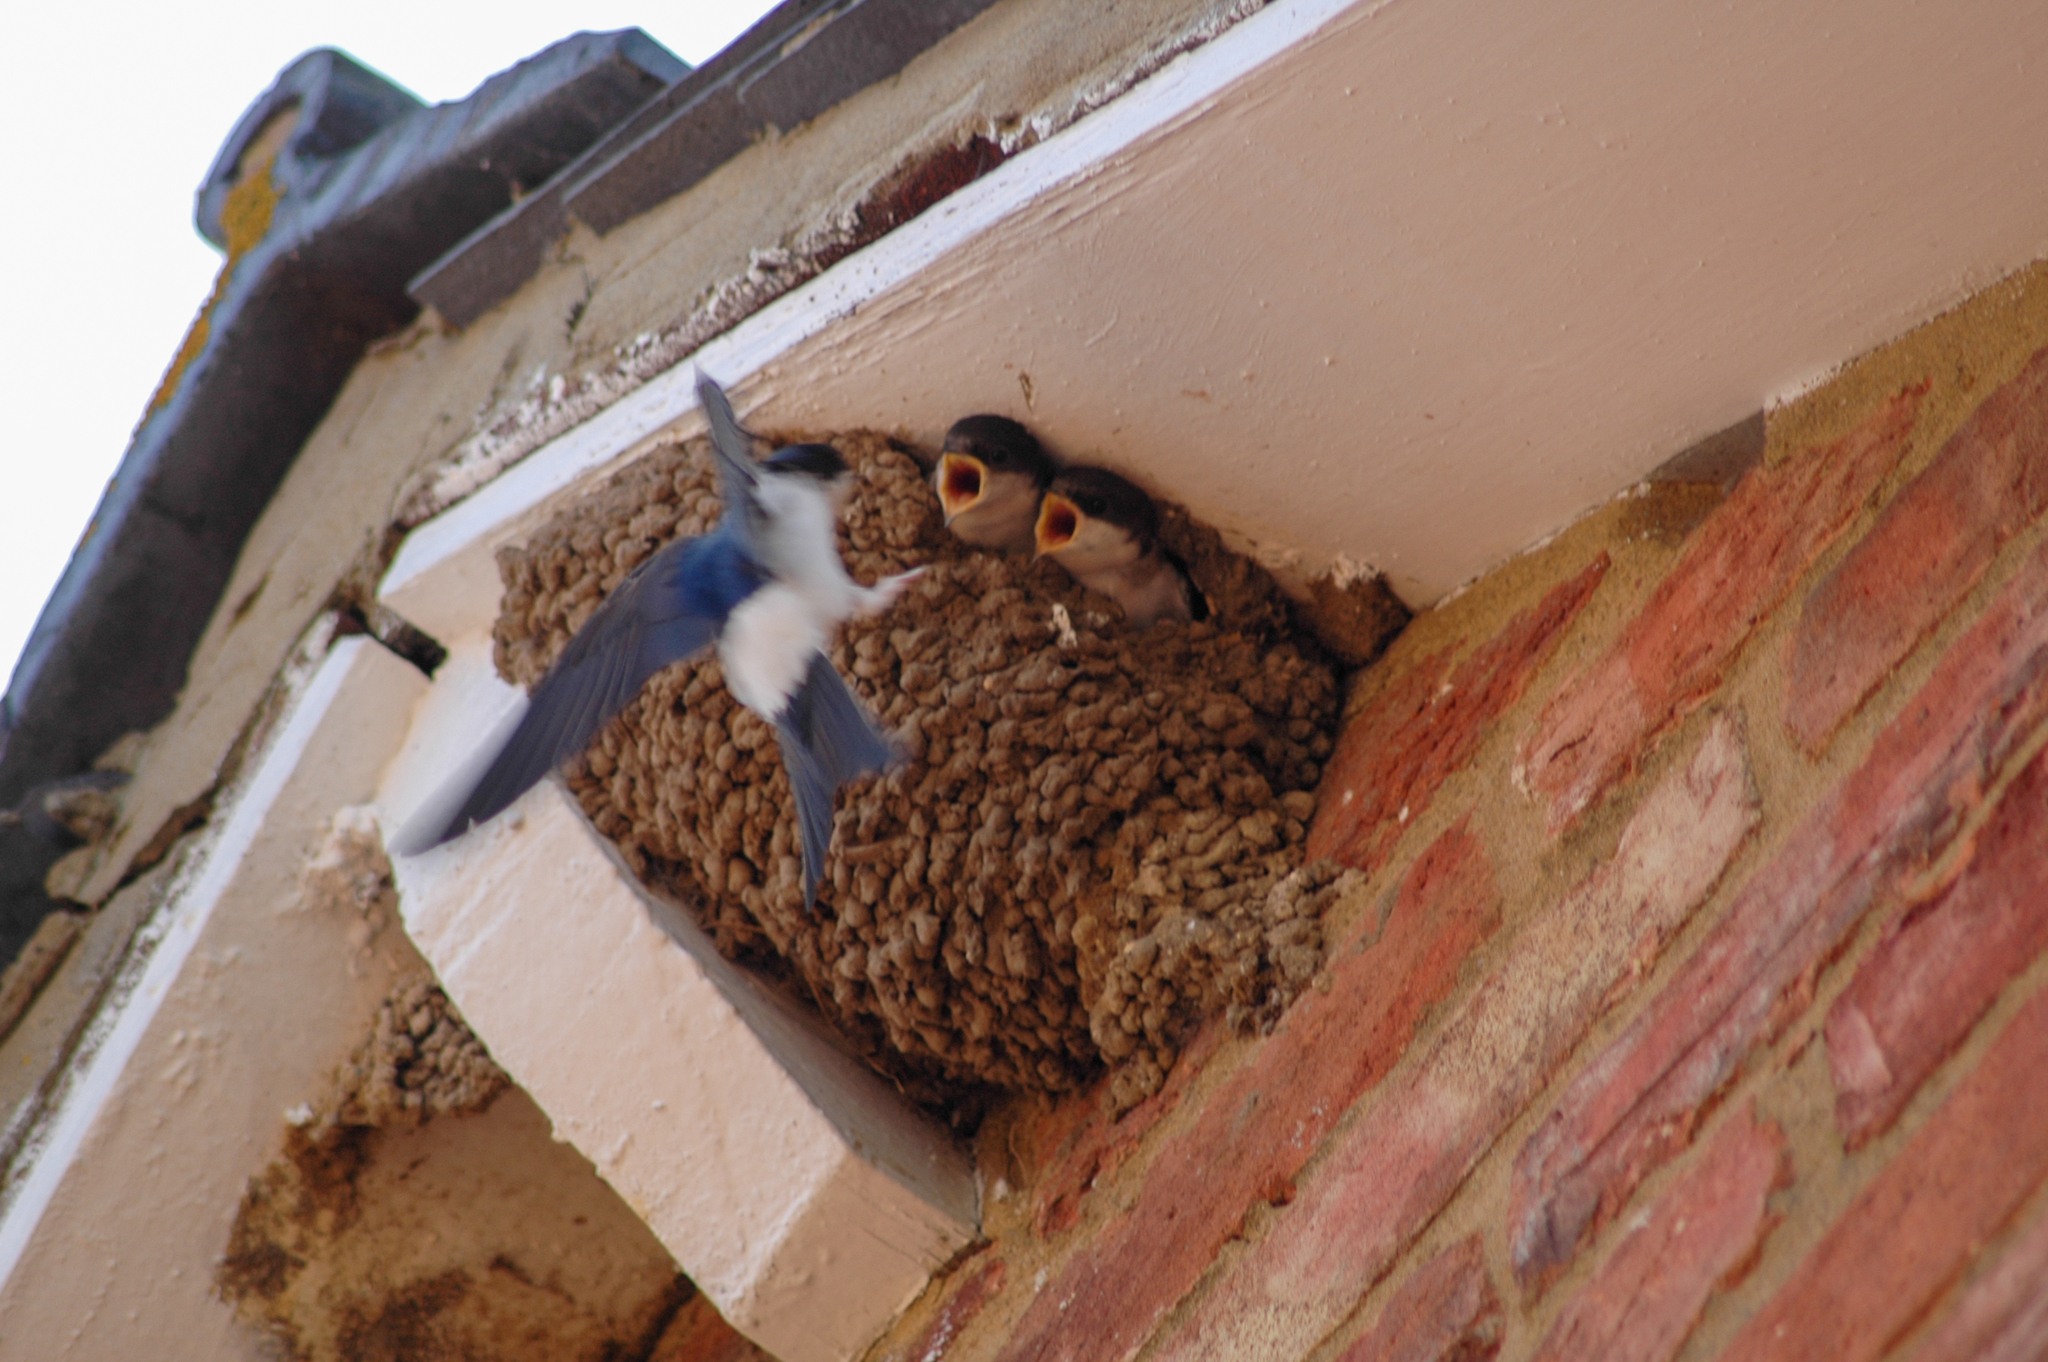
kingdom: Animalia
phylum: Chordata
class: Aves
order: Passeriformes
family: Hirundinidae
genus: Delichon
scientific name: Delichon urbicum
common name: Common house martin
